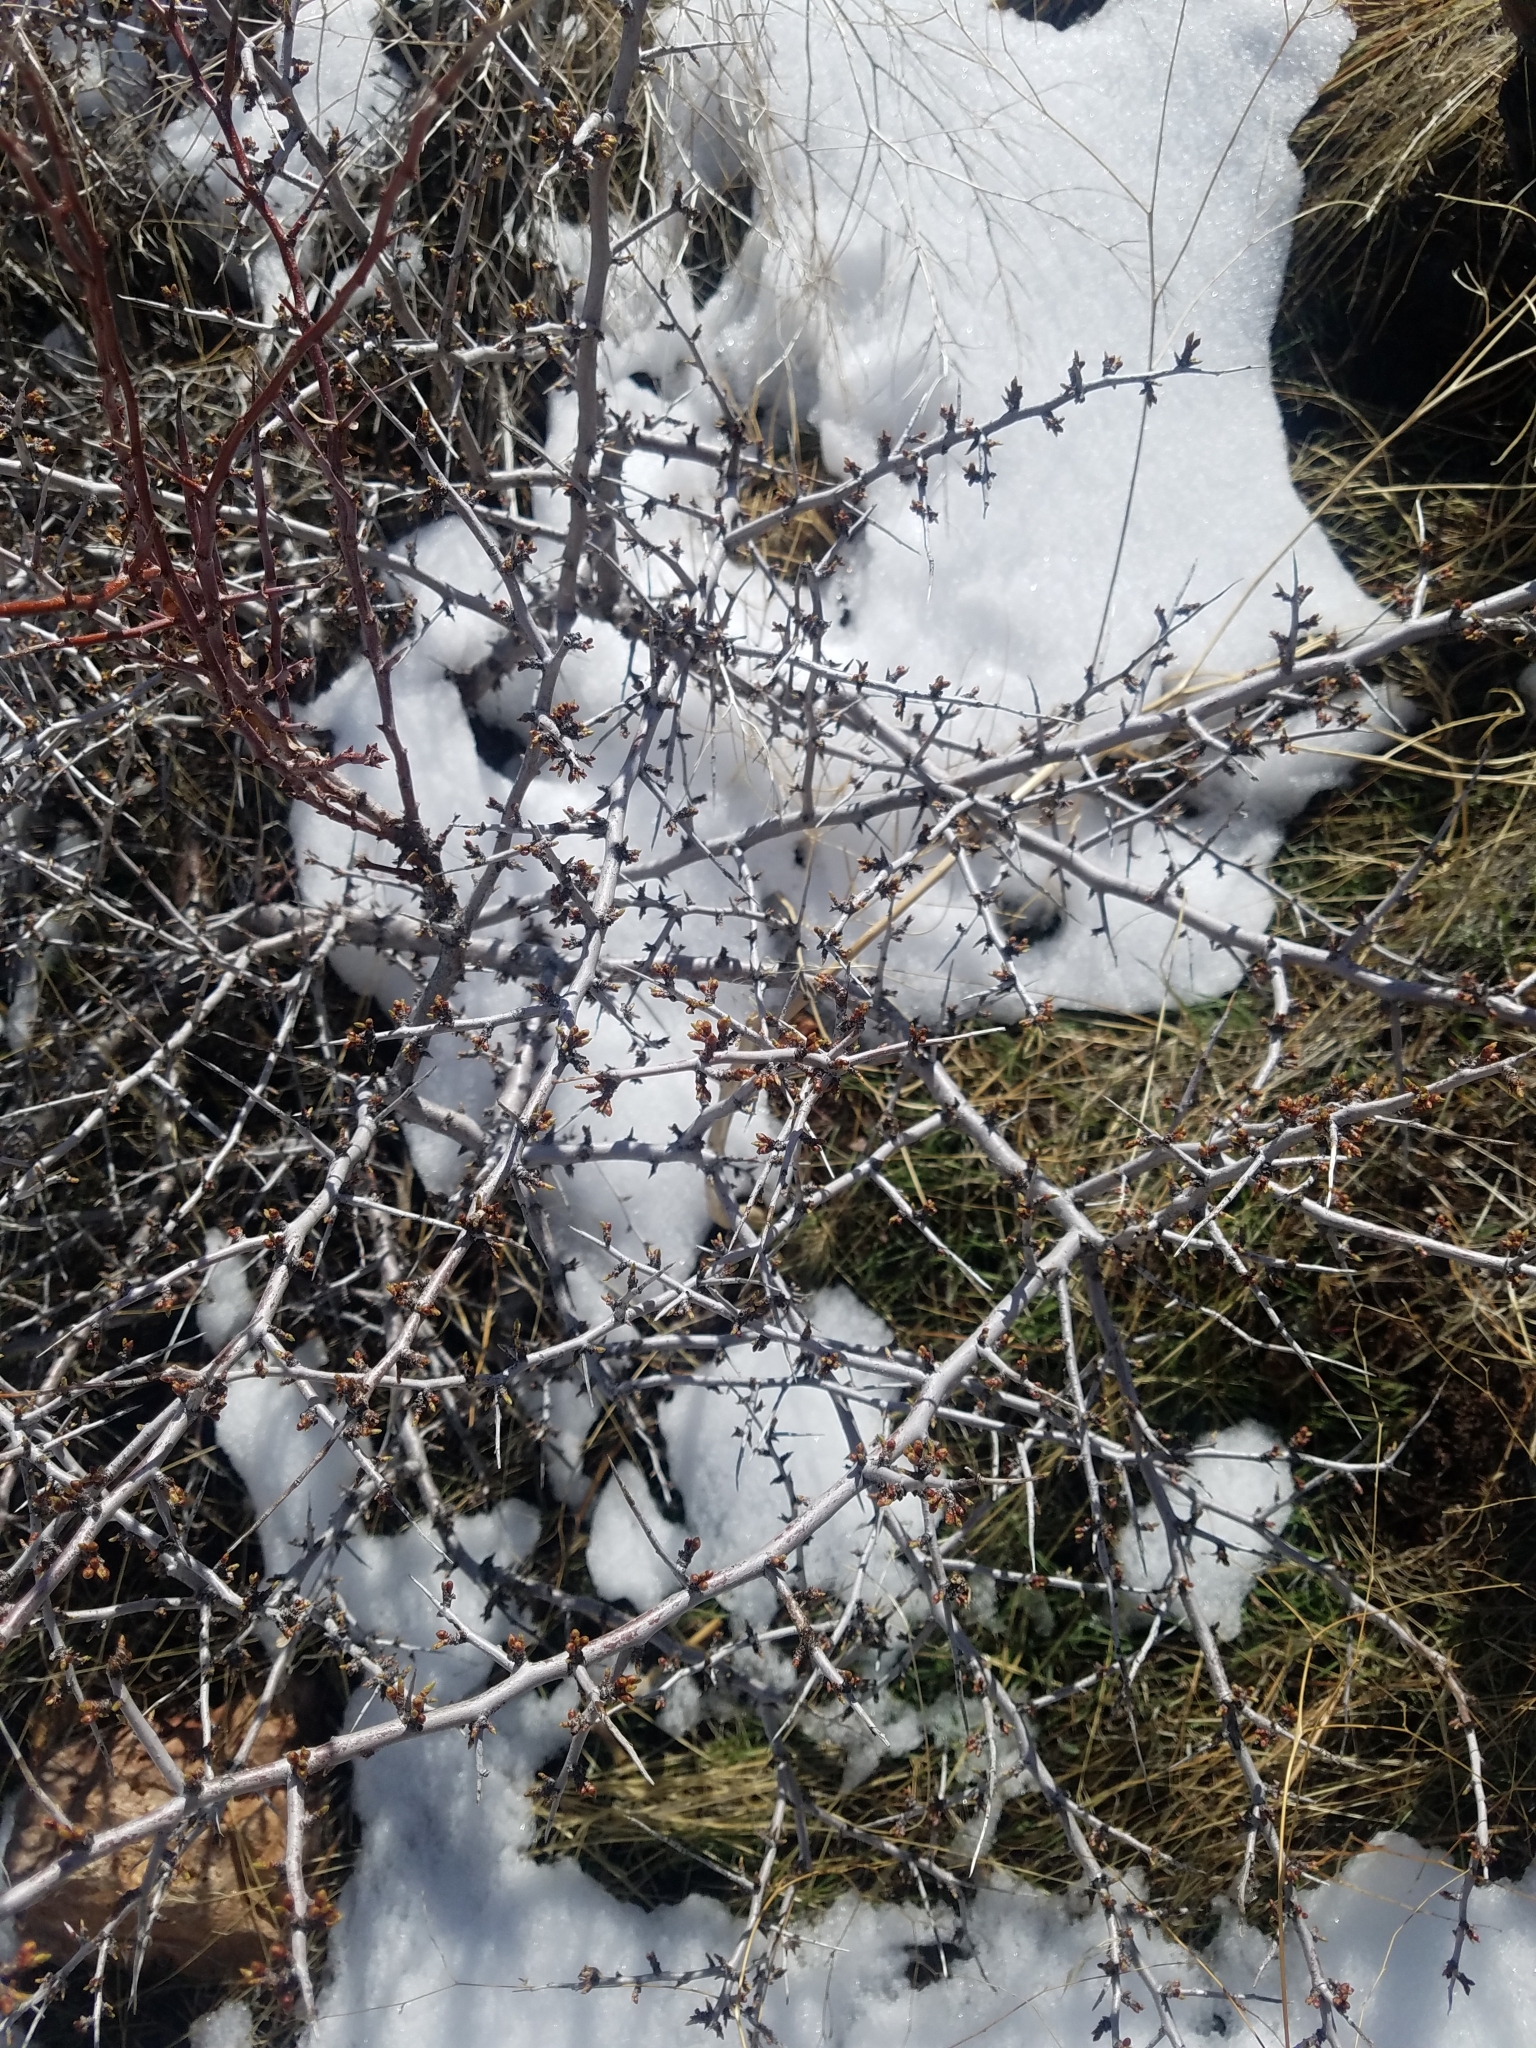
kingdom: Plantae
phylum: Tracheophyta
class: Magnoliopsida
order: Rosales
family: Rosaceae
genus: Prunus
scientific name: Prunus andersonii
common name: Desert peach
